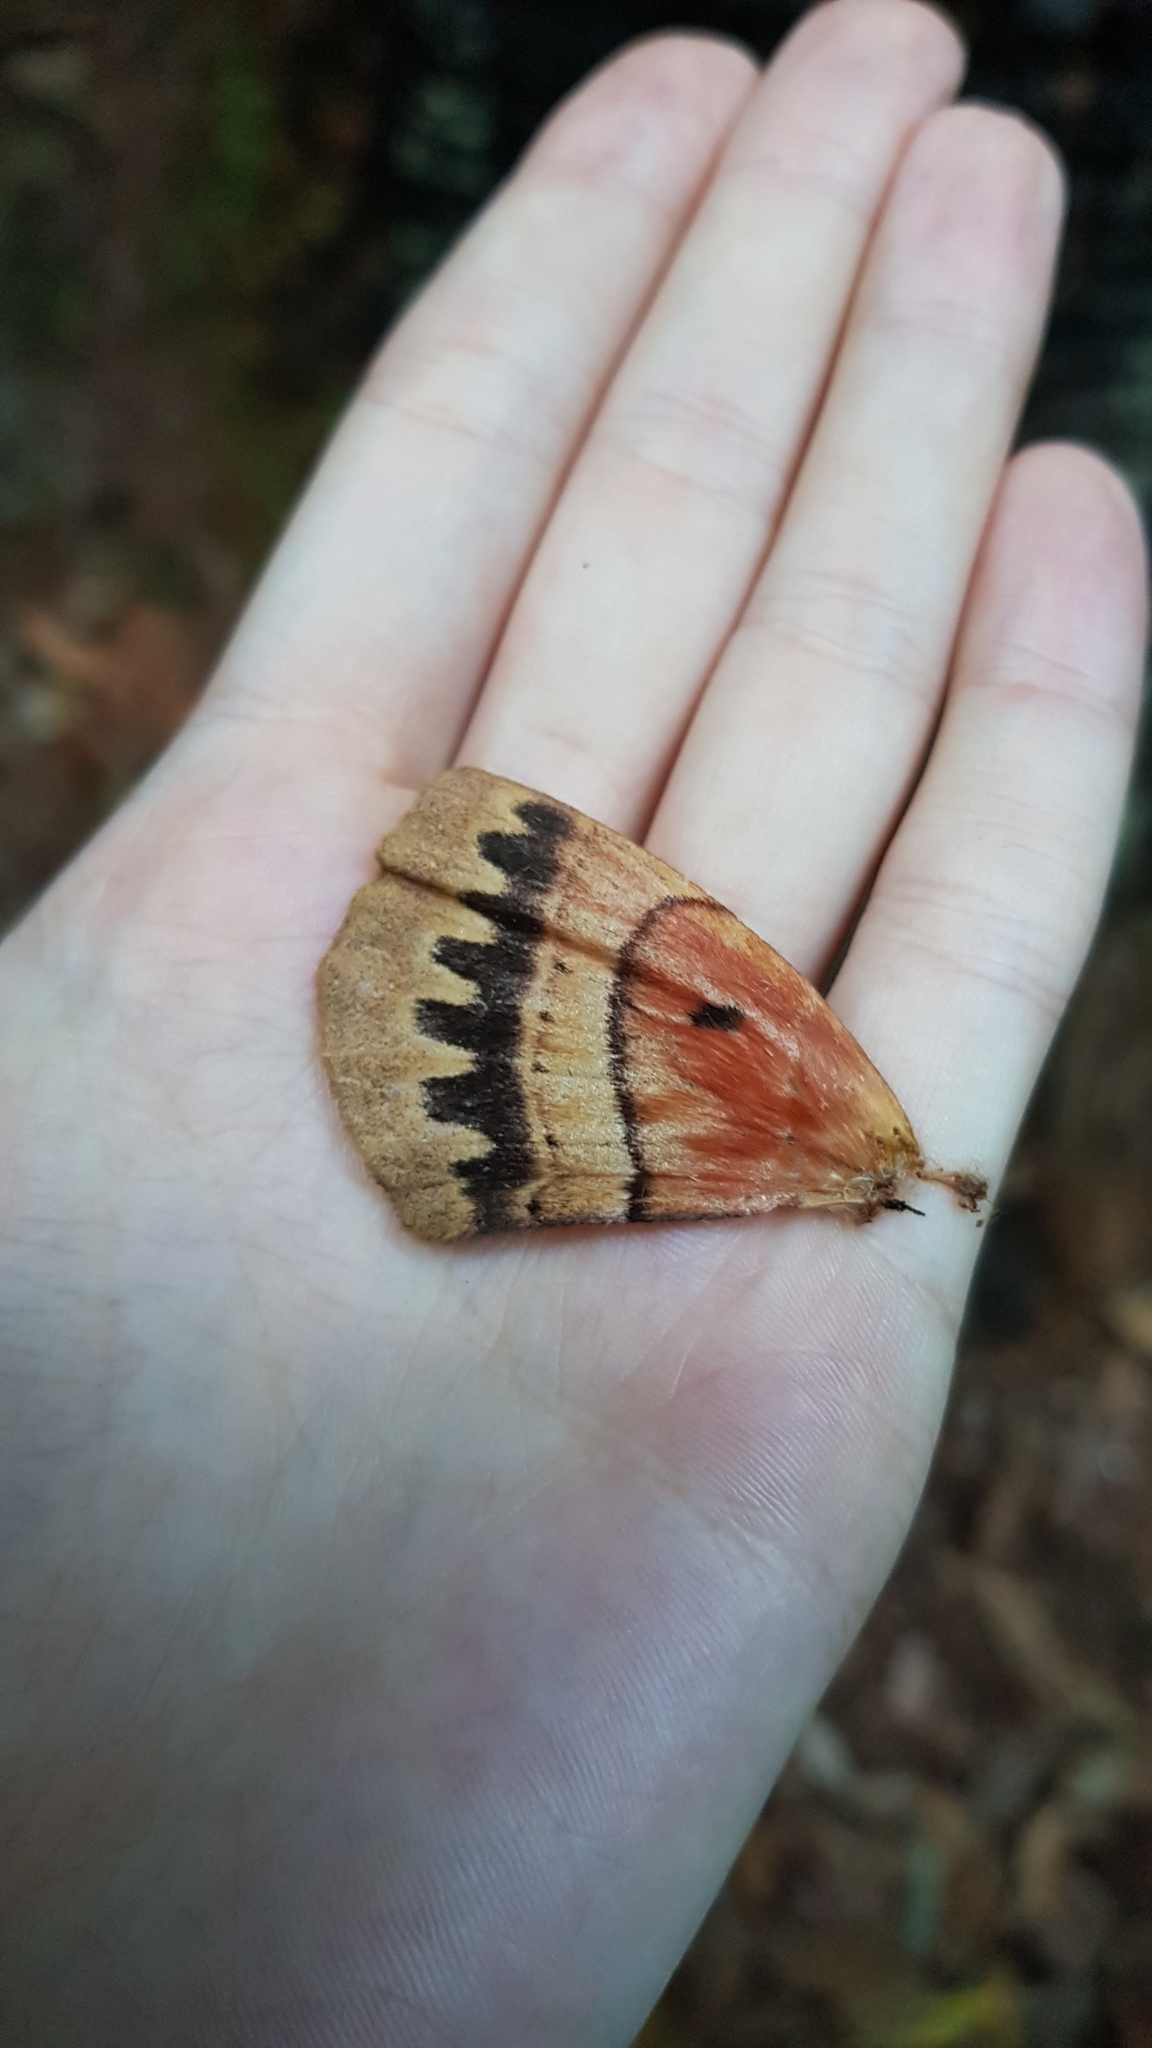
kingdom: Animalia
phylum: Arthropoda
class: Insecta
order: Lepidoptera
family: Anthelidae
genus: Chelepteryx
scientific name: Chelepteryx chalepteryx
